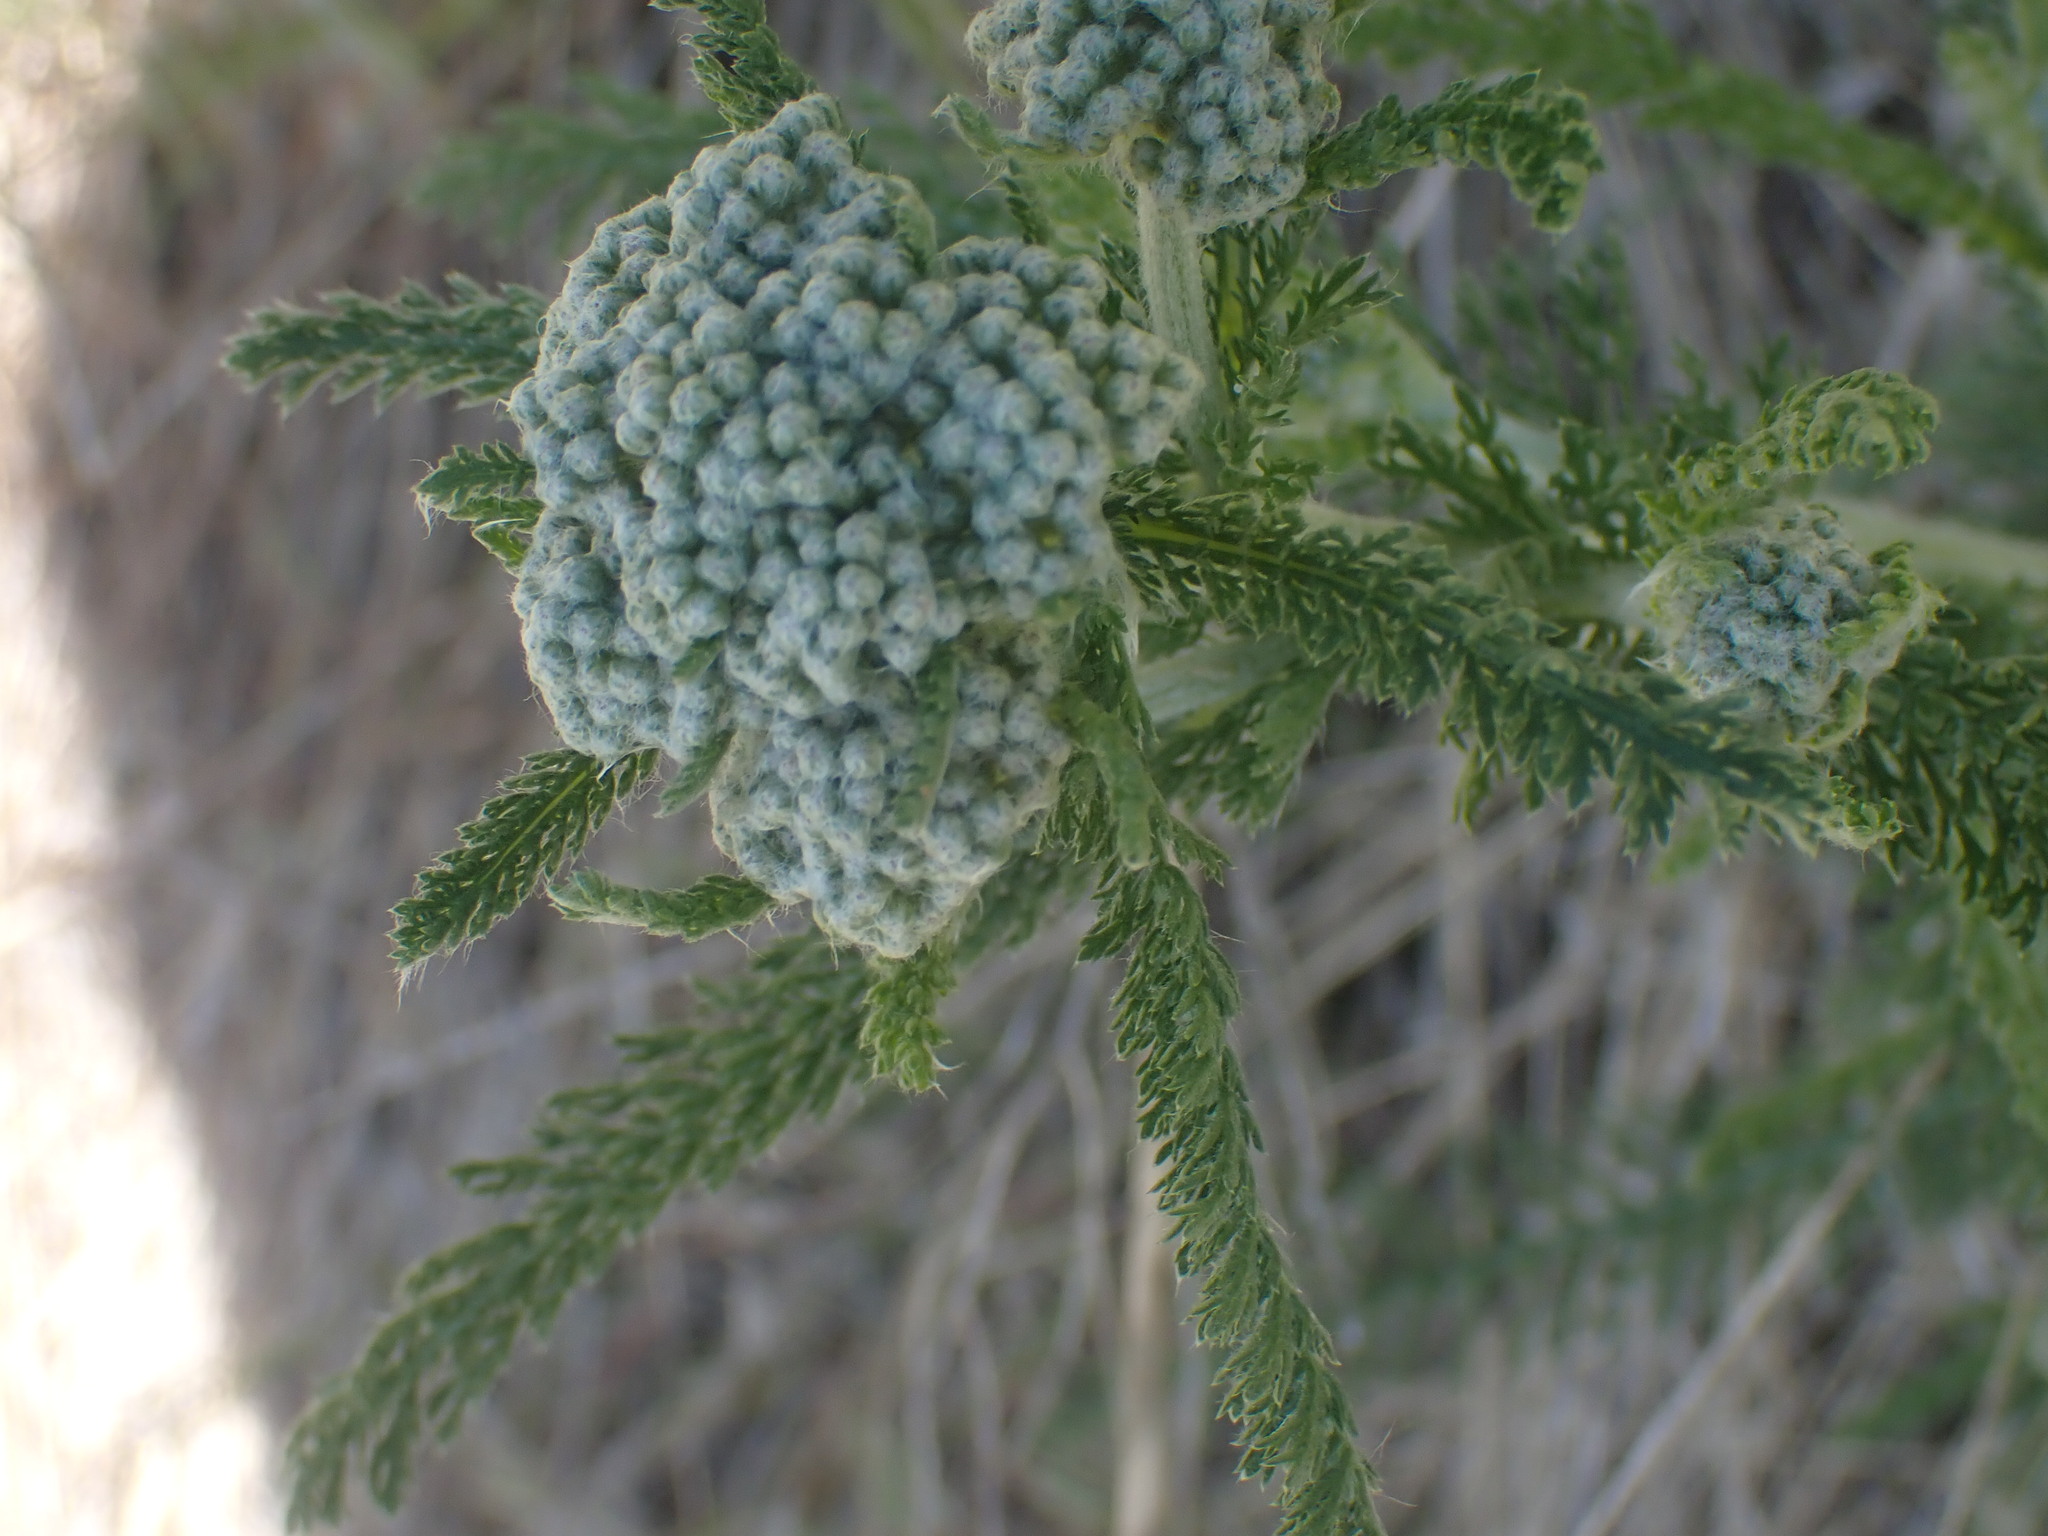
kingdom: Plantae
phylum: Tracheophyta
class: Magnoliopsida
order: Asterales
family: Asteraceae
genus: Achillea
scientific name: Achillea millefolium
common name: Yarrow
